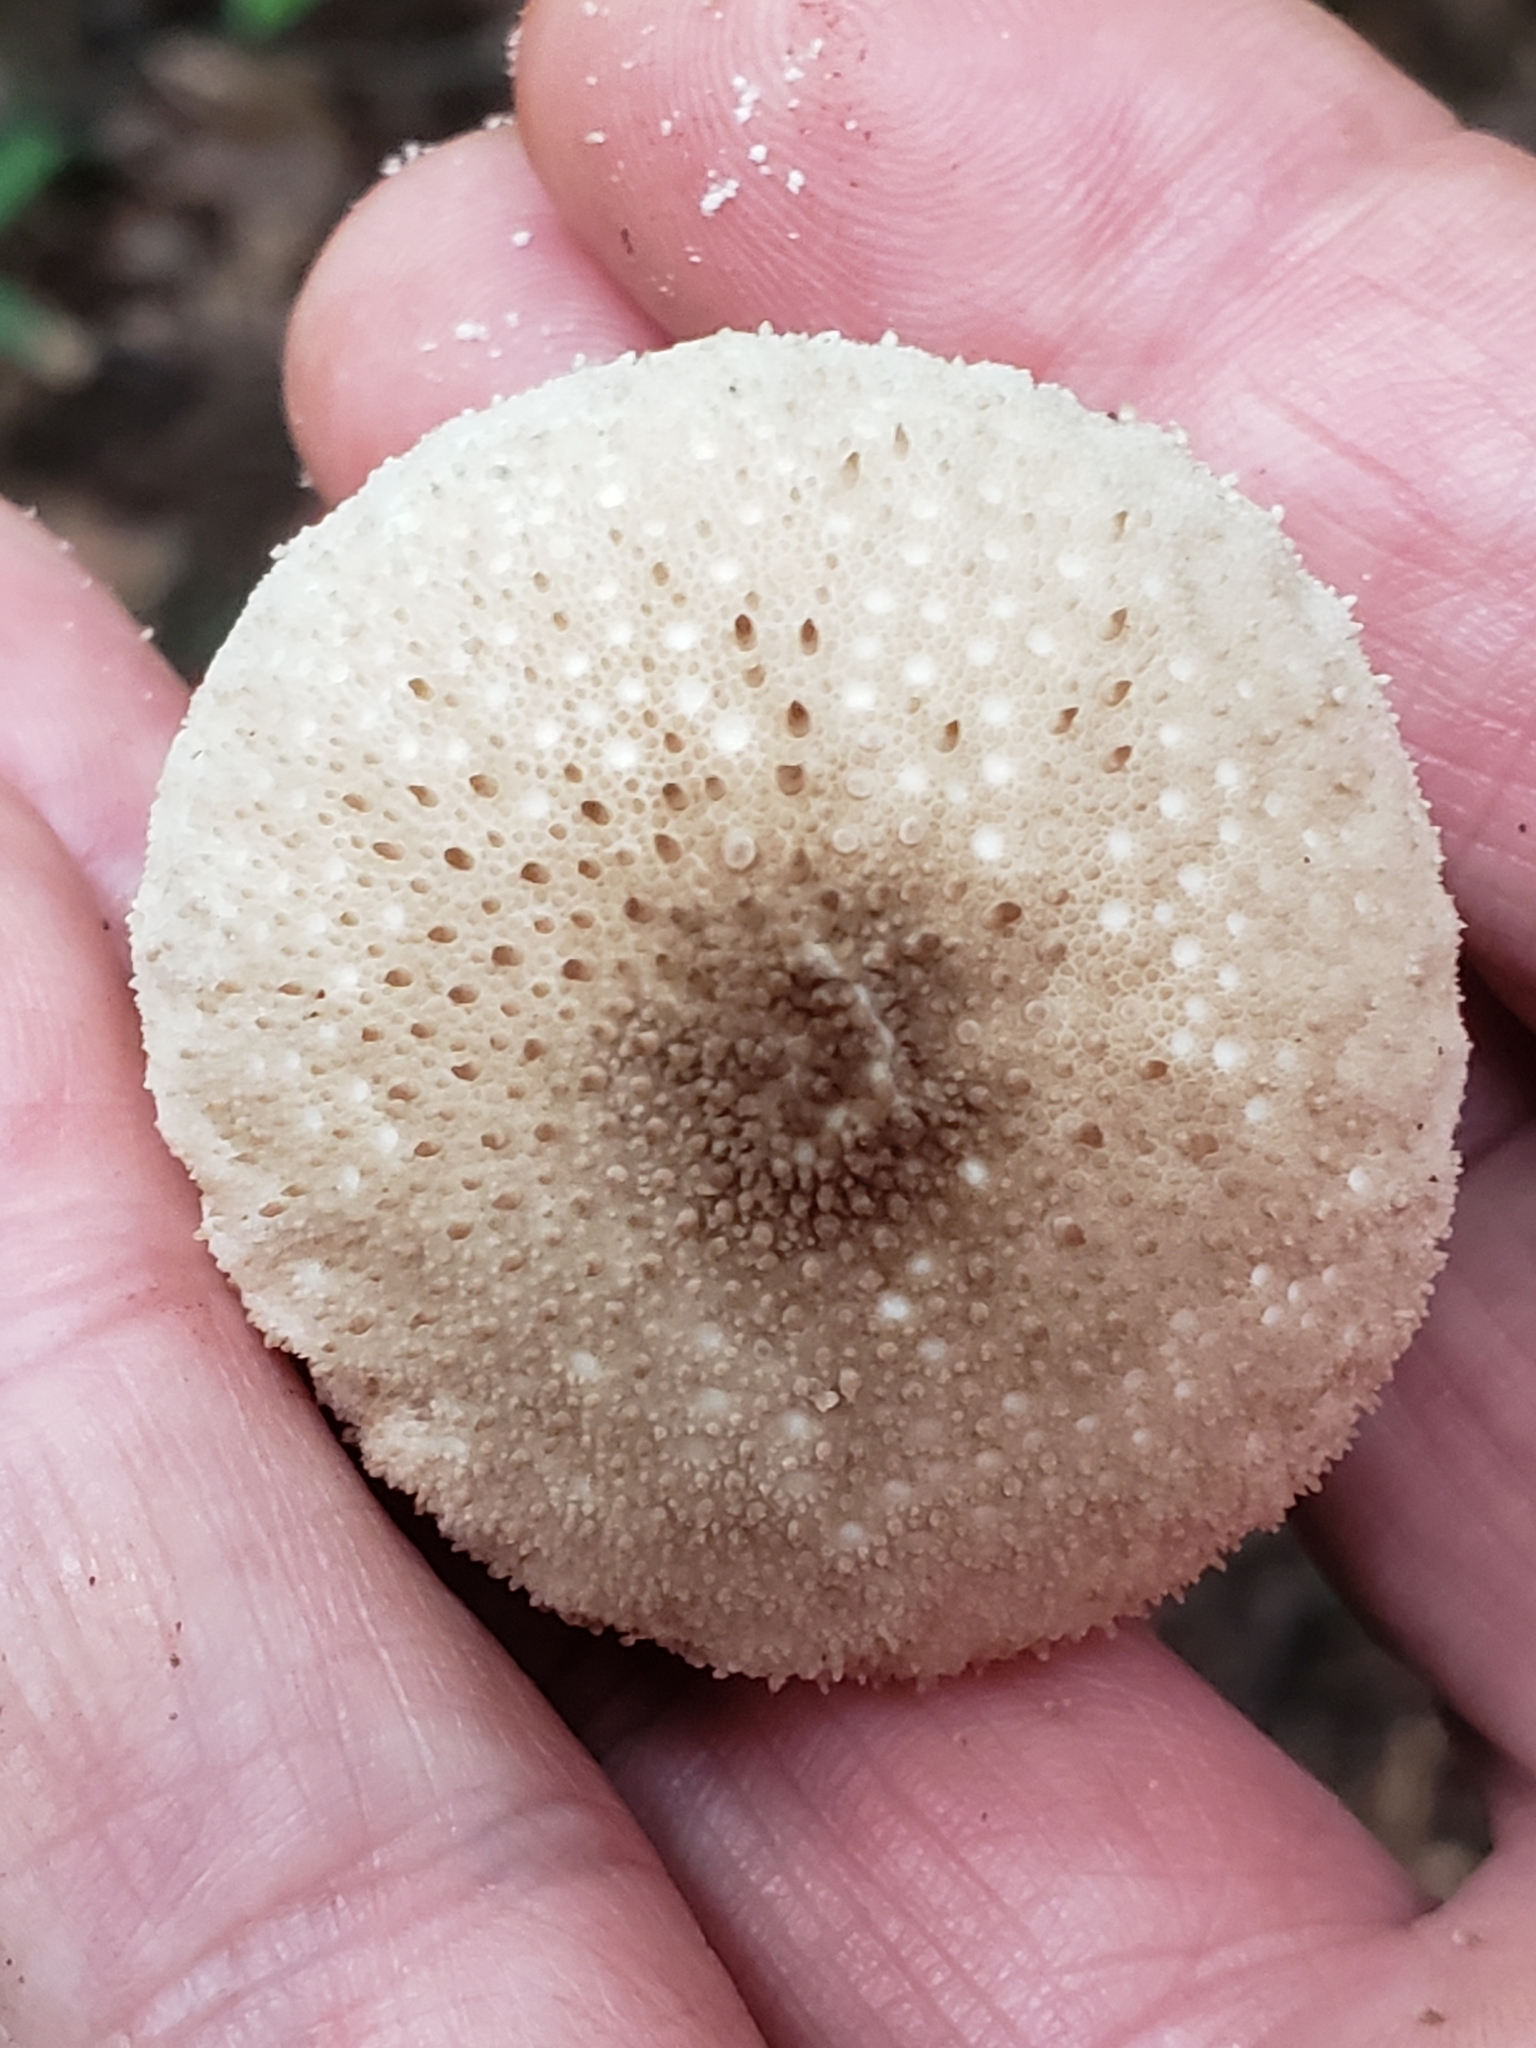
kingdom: Fungi
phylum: Basidiomycota
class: Agaricomycetes
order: Agaricales
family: Lycoperdaceae
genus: Lycoperdon
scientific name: Lycoperdon perlatum
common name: Common puffball
